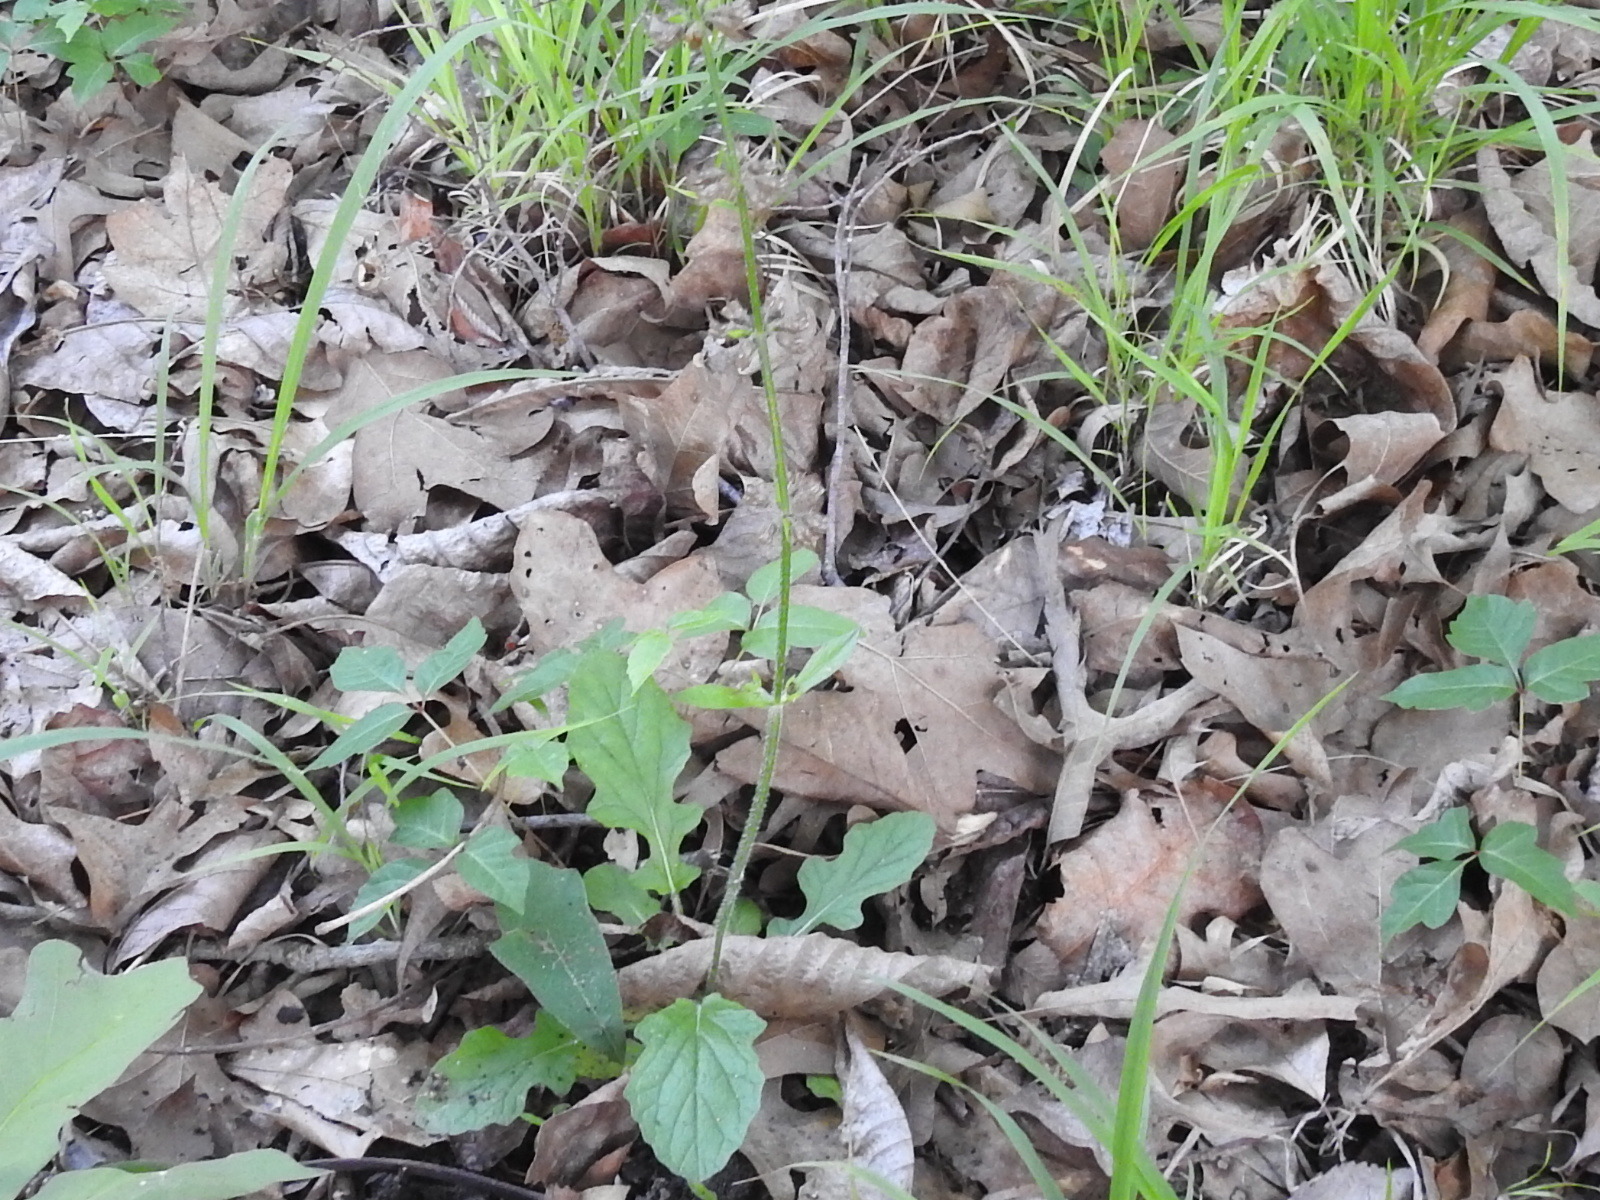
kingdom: Plantae
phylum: Tracheophyta
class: Magnoliopsida
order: Lamiales
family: Lamiaceae
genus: Salvia
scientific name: Salvia lyrata
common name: Cancerweed
